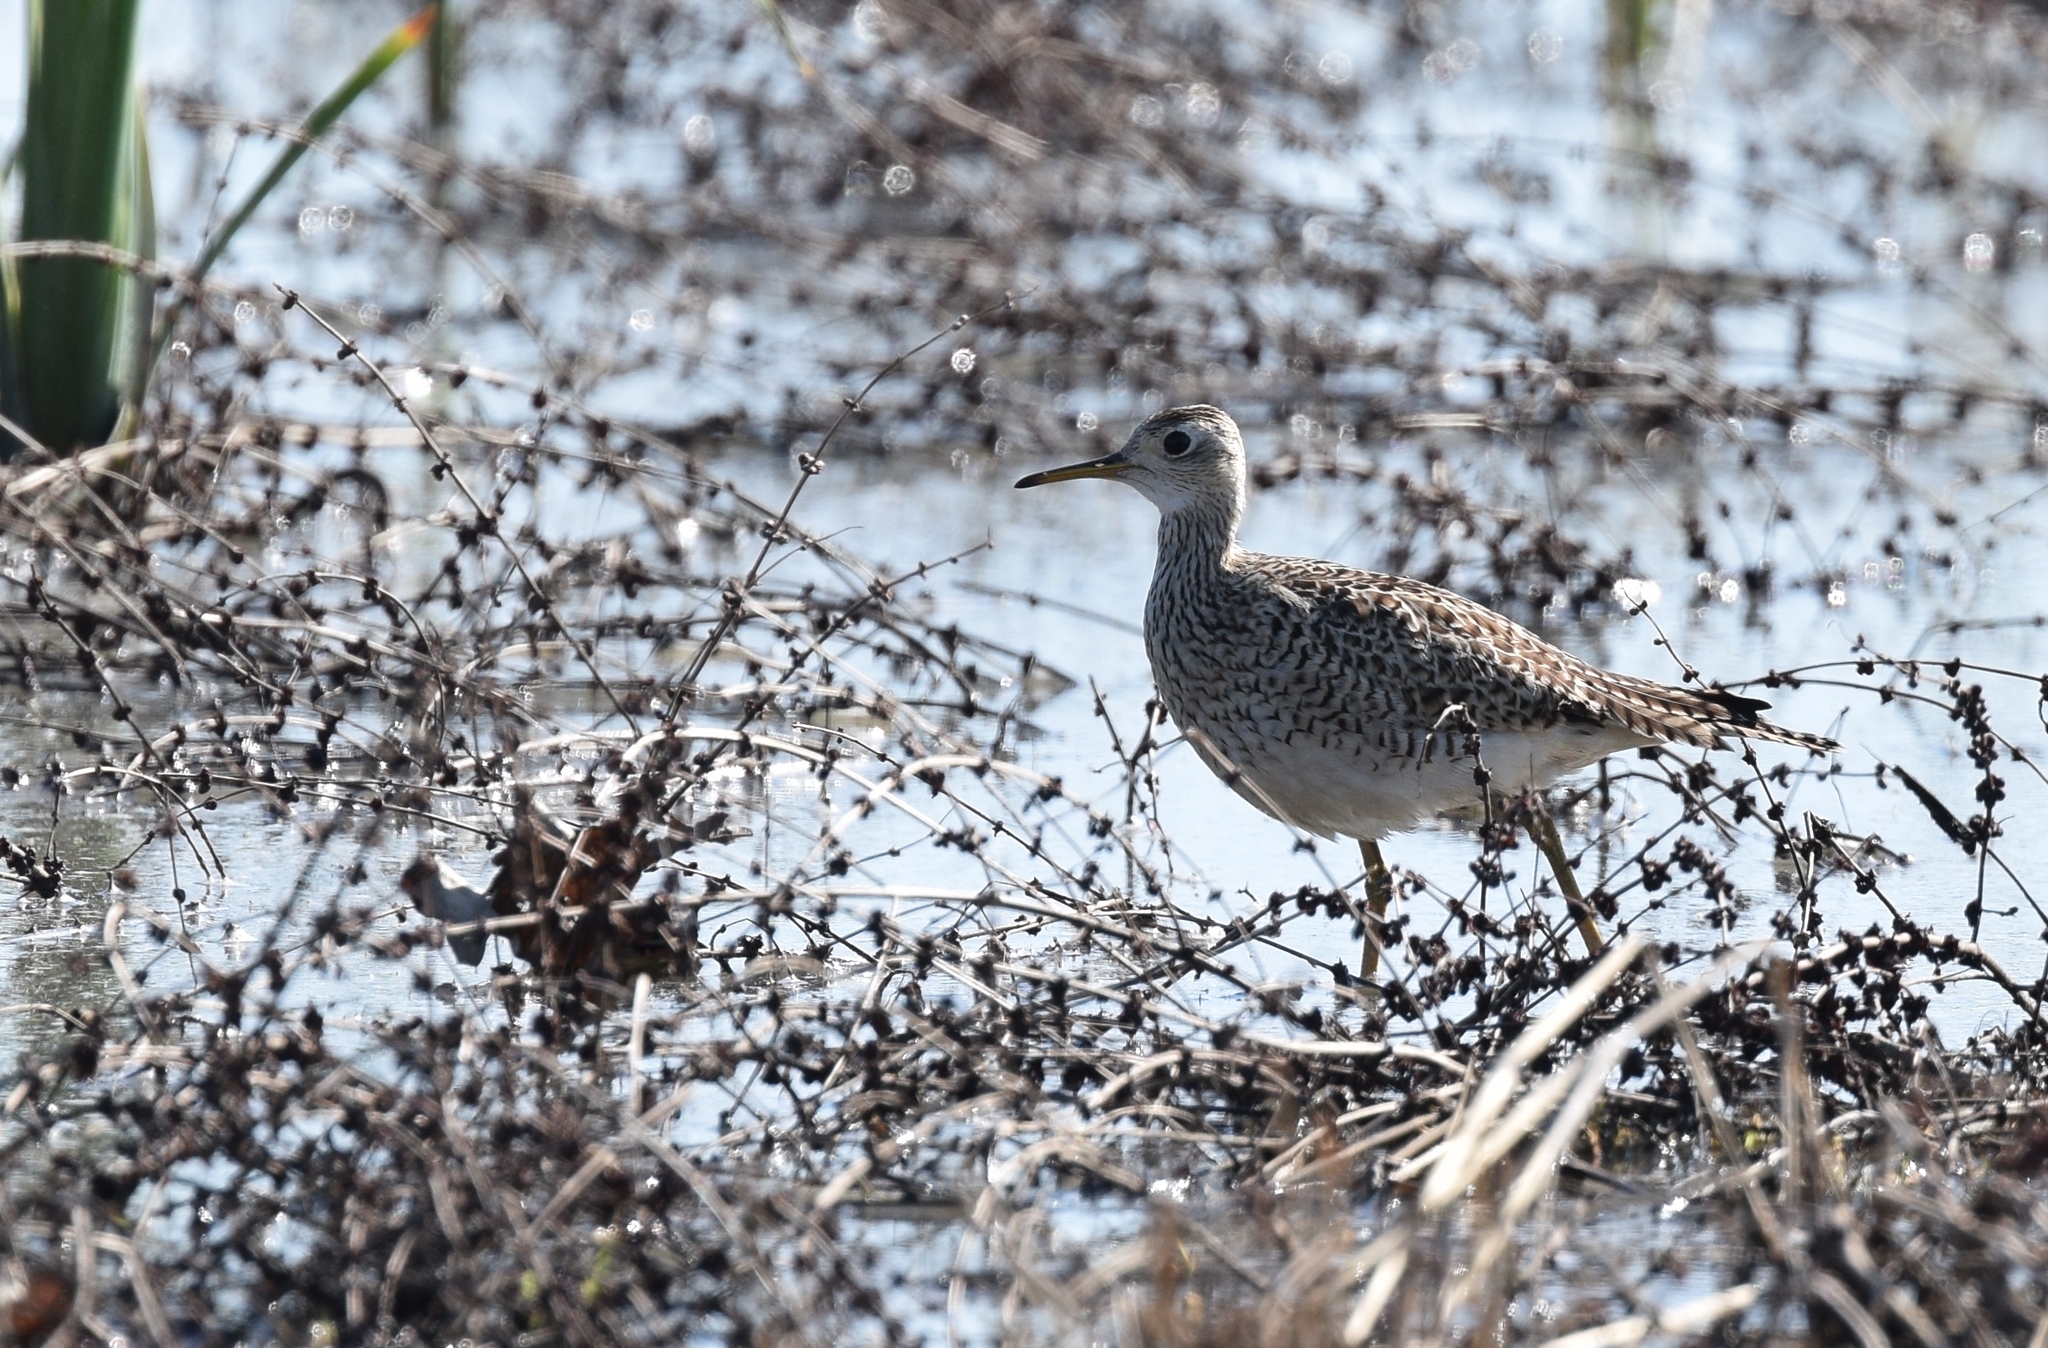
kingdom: Animalia
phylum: Chordata
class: Aves
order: Charadriiformes
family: Scolopacidae
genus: Bartramia
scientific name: Bartramia longicauda
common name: Upland sandpiper
